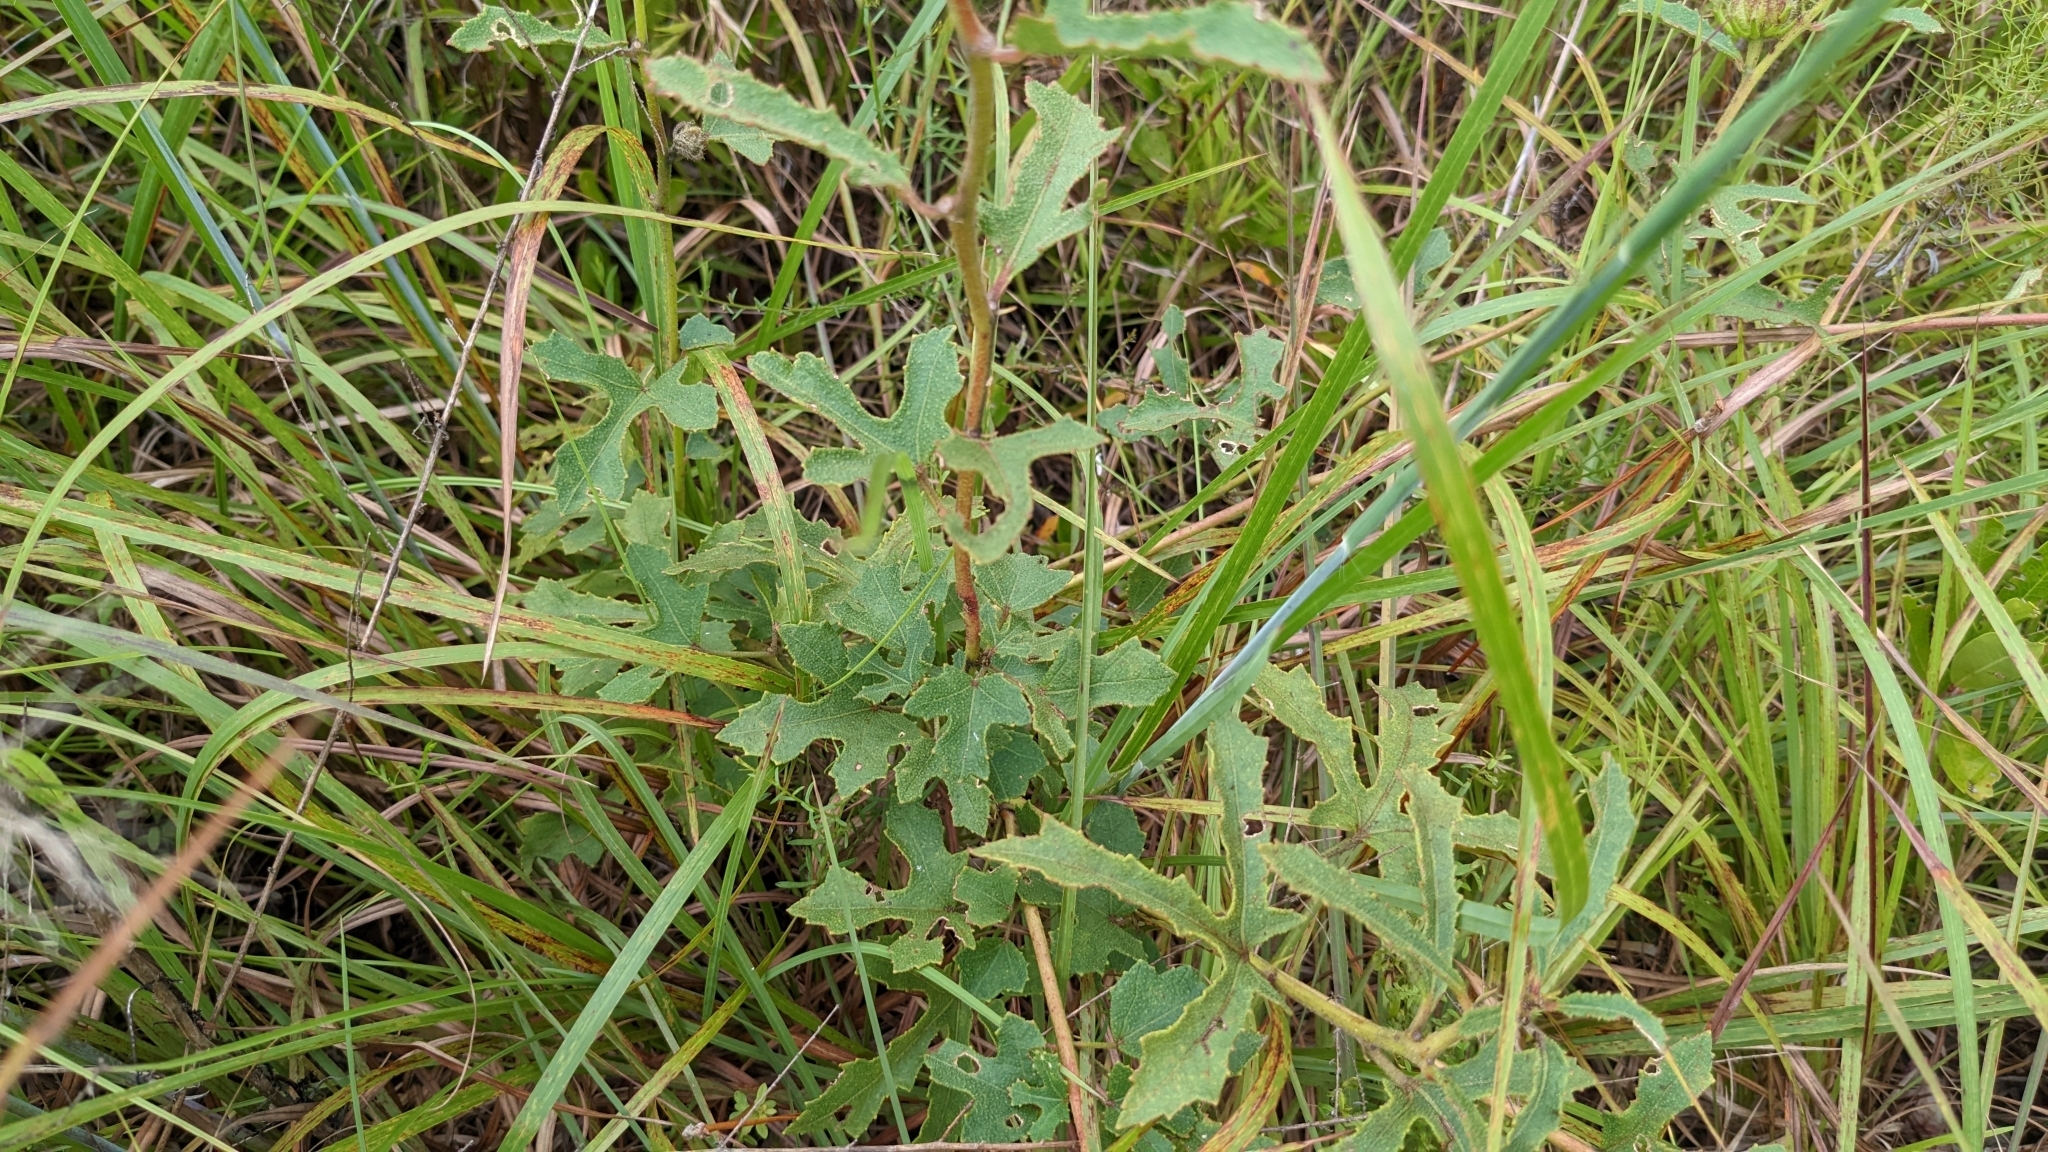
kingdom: Plantae
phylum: Tracheophyta
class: Magnoliopsida
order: Malvales
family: Malvaceae
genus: Hibiscus
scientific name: Hibiscus aculeatus
